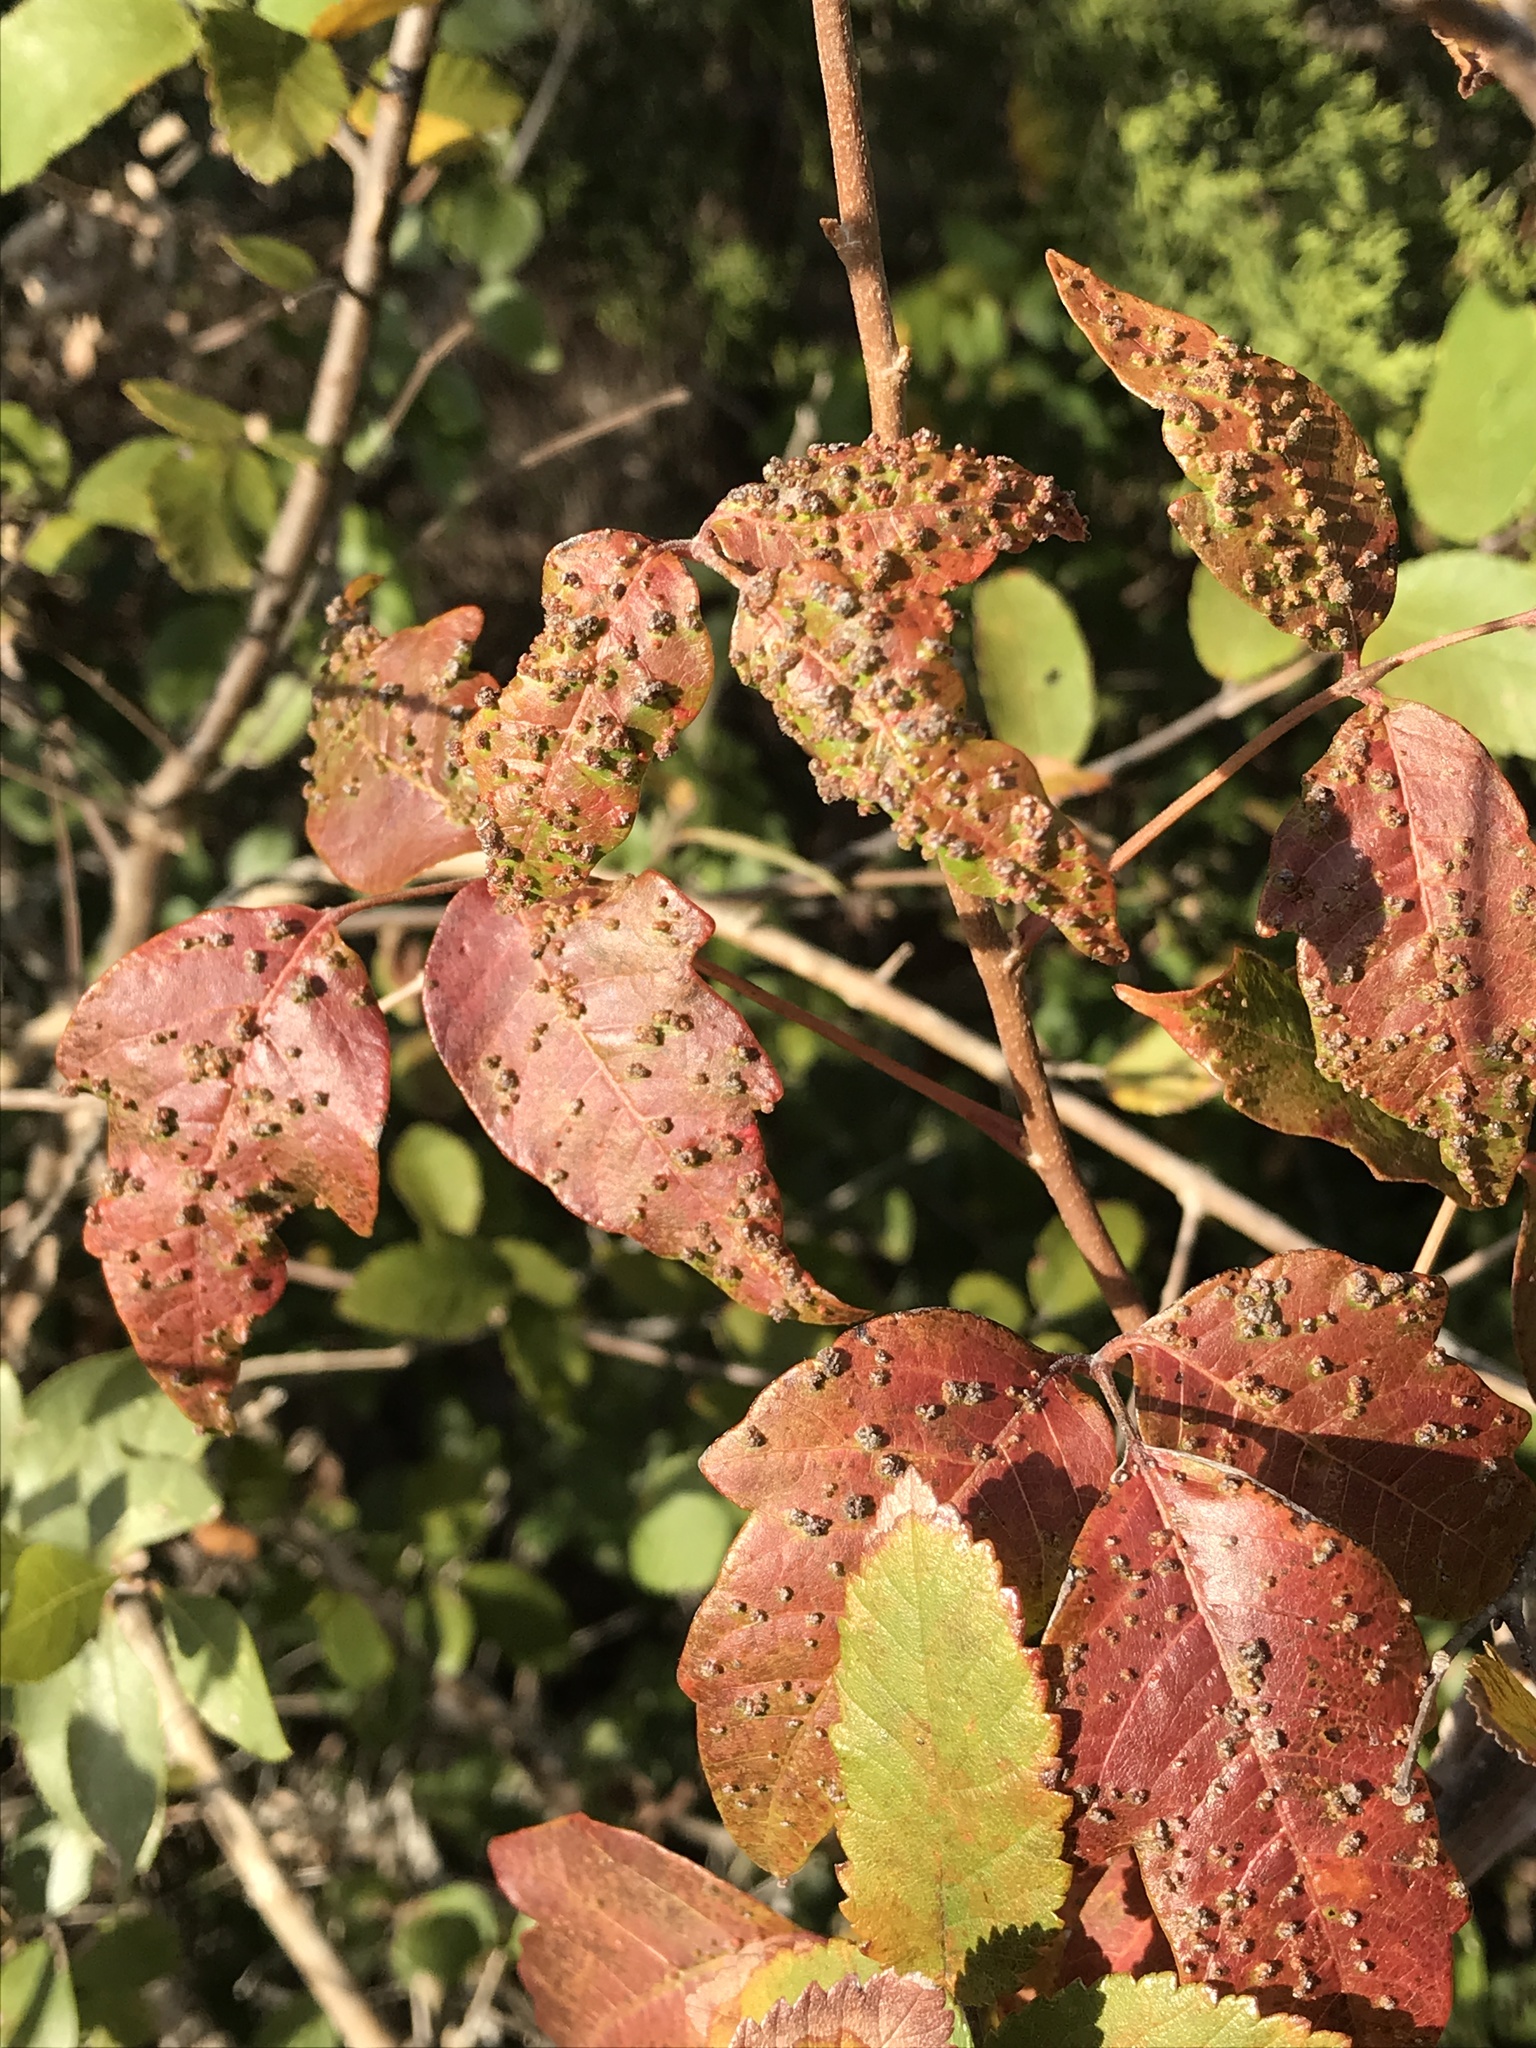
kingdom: Animalia
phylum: Arthropoda
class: Arachnida
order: Trombidiformes
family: Eriophyidae
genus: Aculops
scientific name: Aculops
